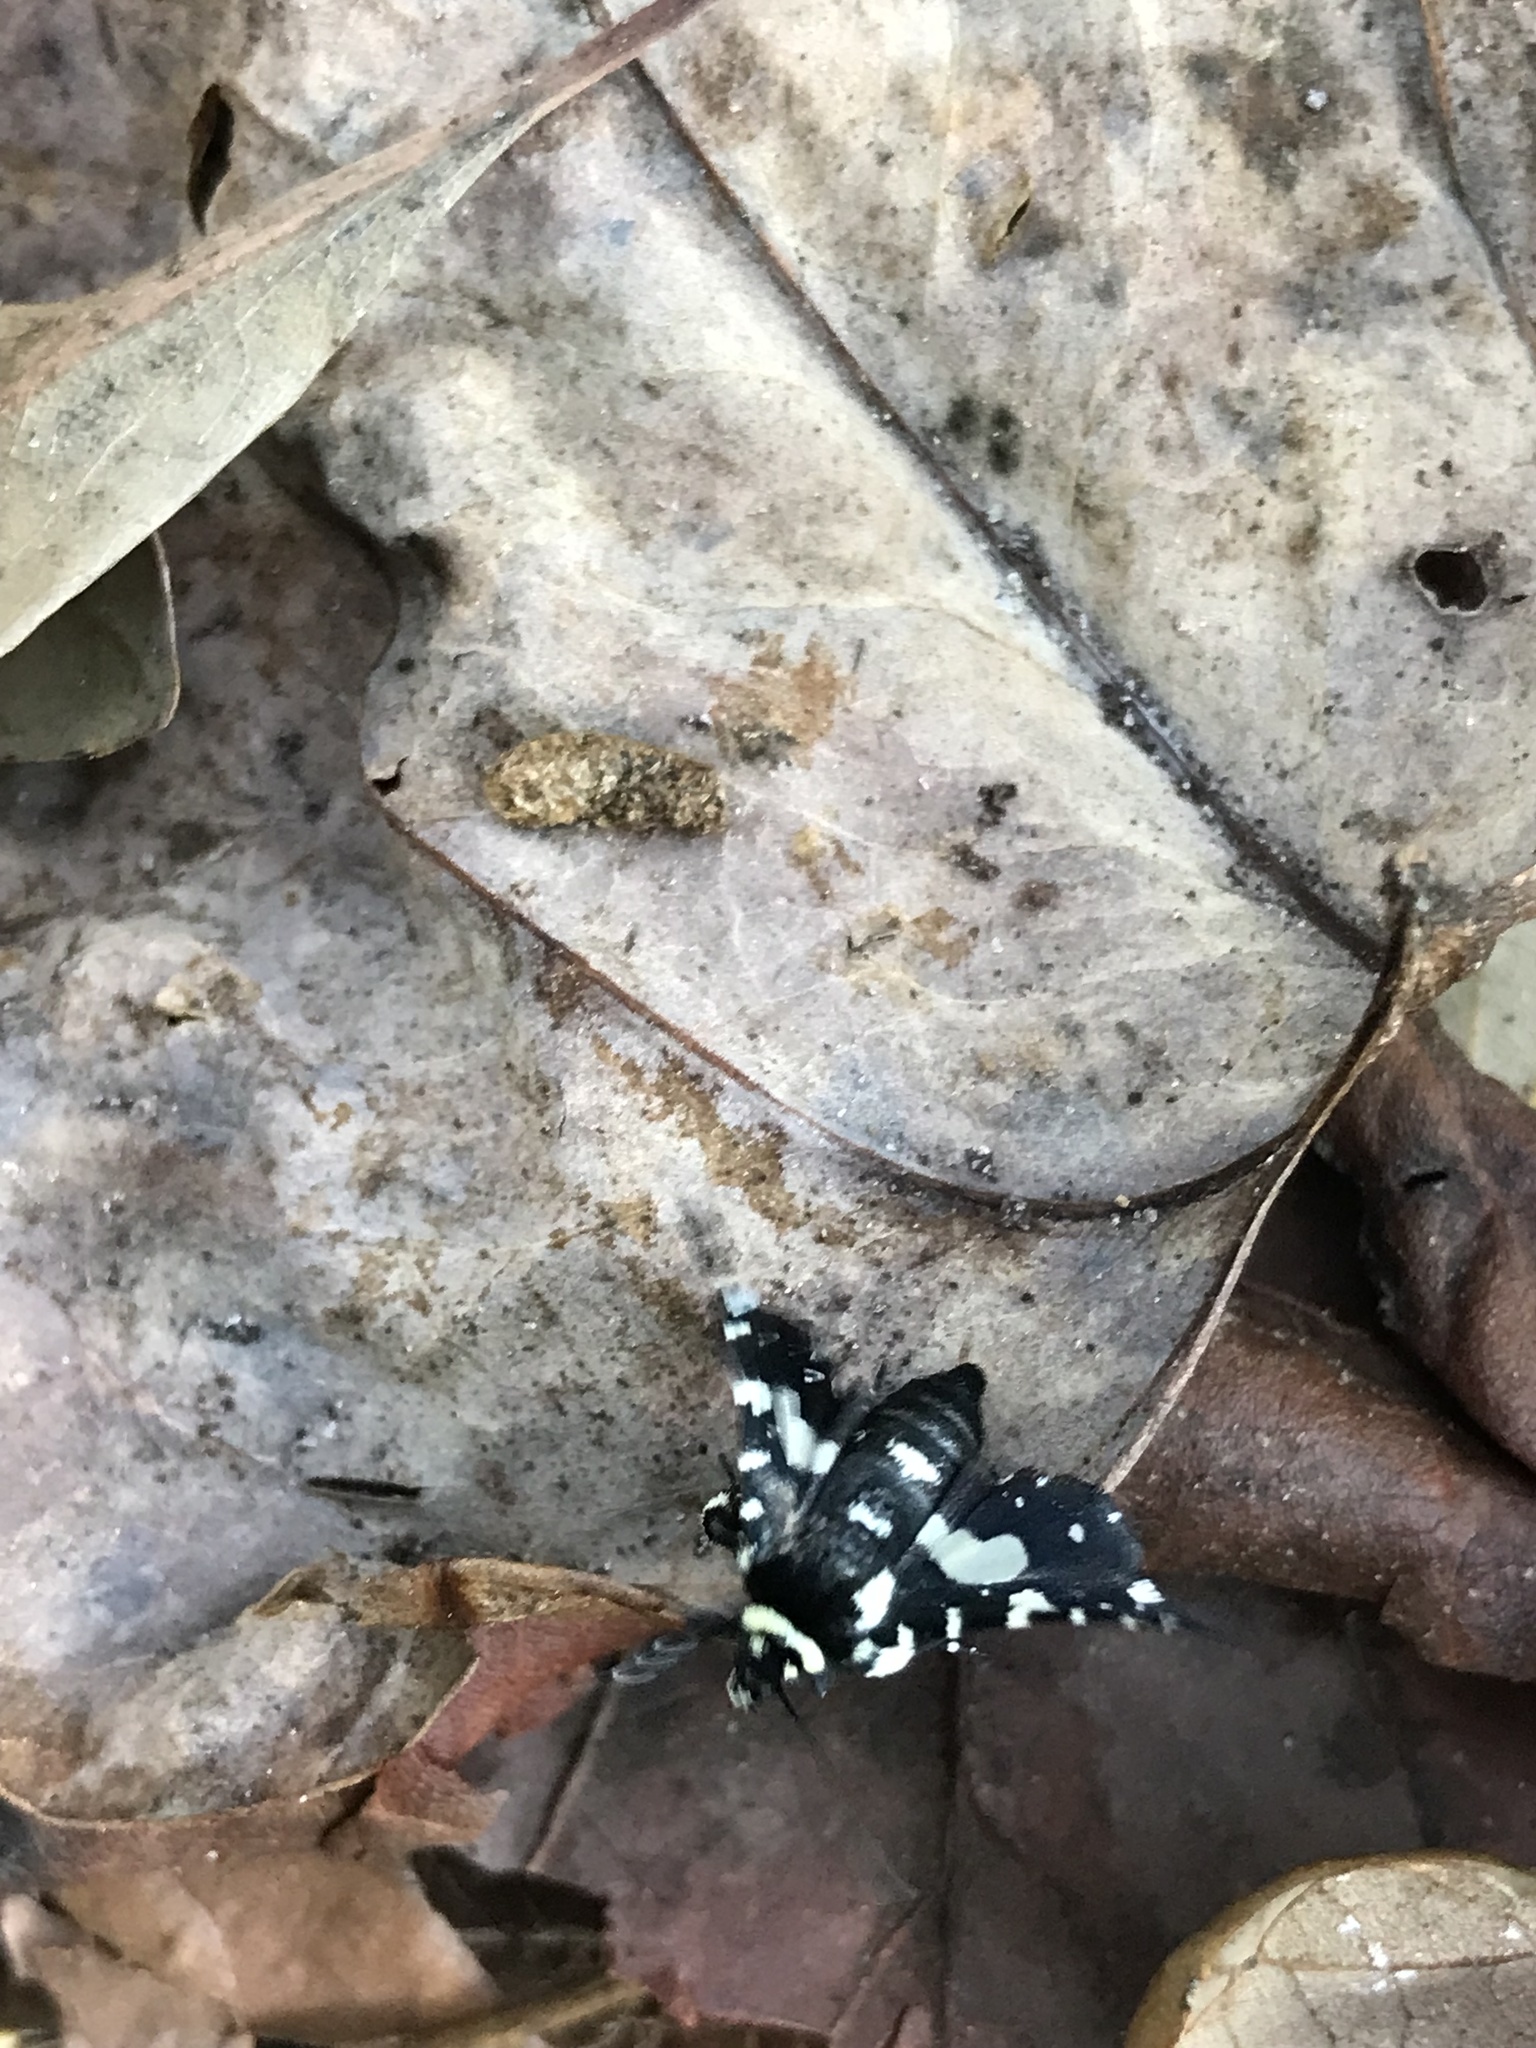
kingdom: Animalia
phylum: Arthropoda
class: Insecta
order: Lepidoptera
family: Thyrididae
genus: Pseudothyris
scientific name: Pseudothyris sepulchralis
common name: Mournful thyris moth
